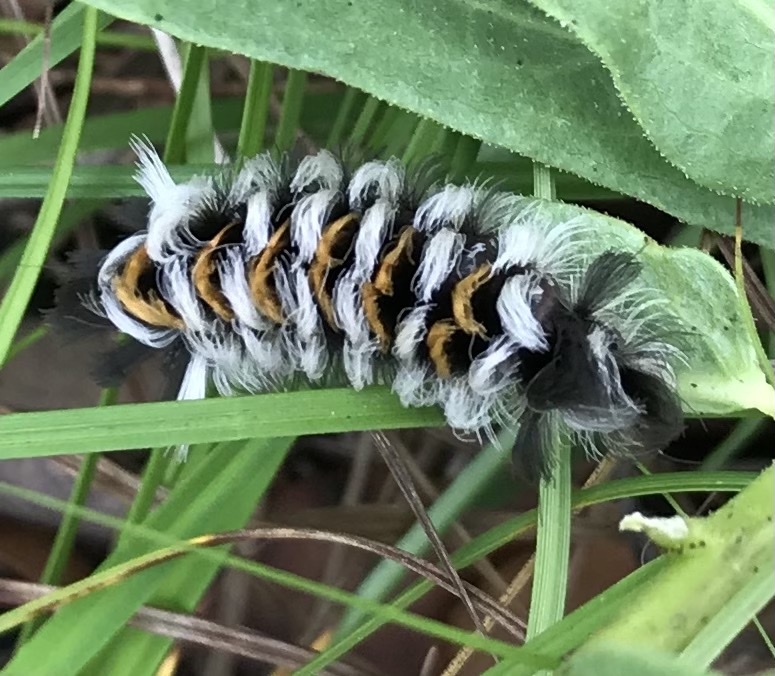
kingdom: Animalia
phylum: Arthropoda
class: Insecta
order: Lepidoptera
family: Erebidae
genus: Euchaetes
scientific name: Euchaetes
